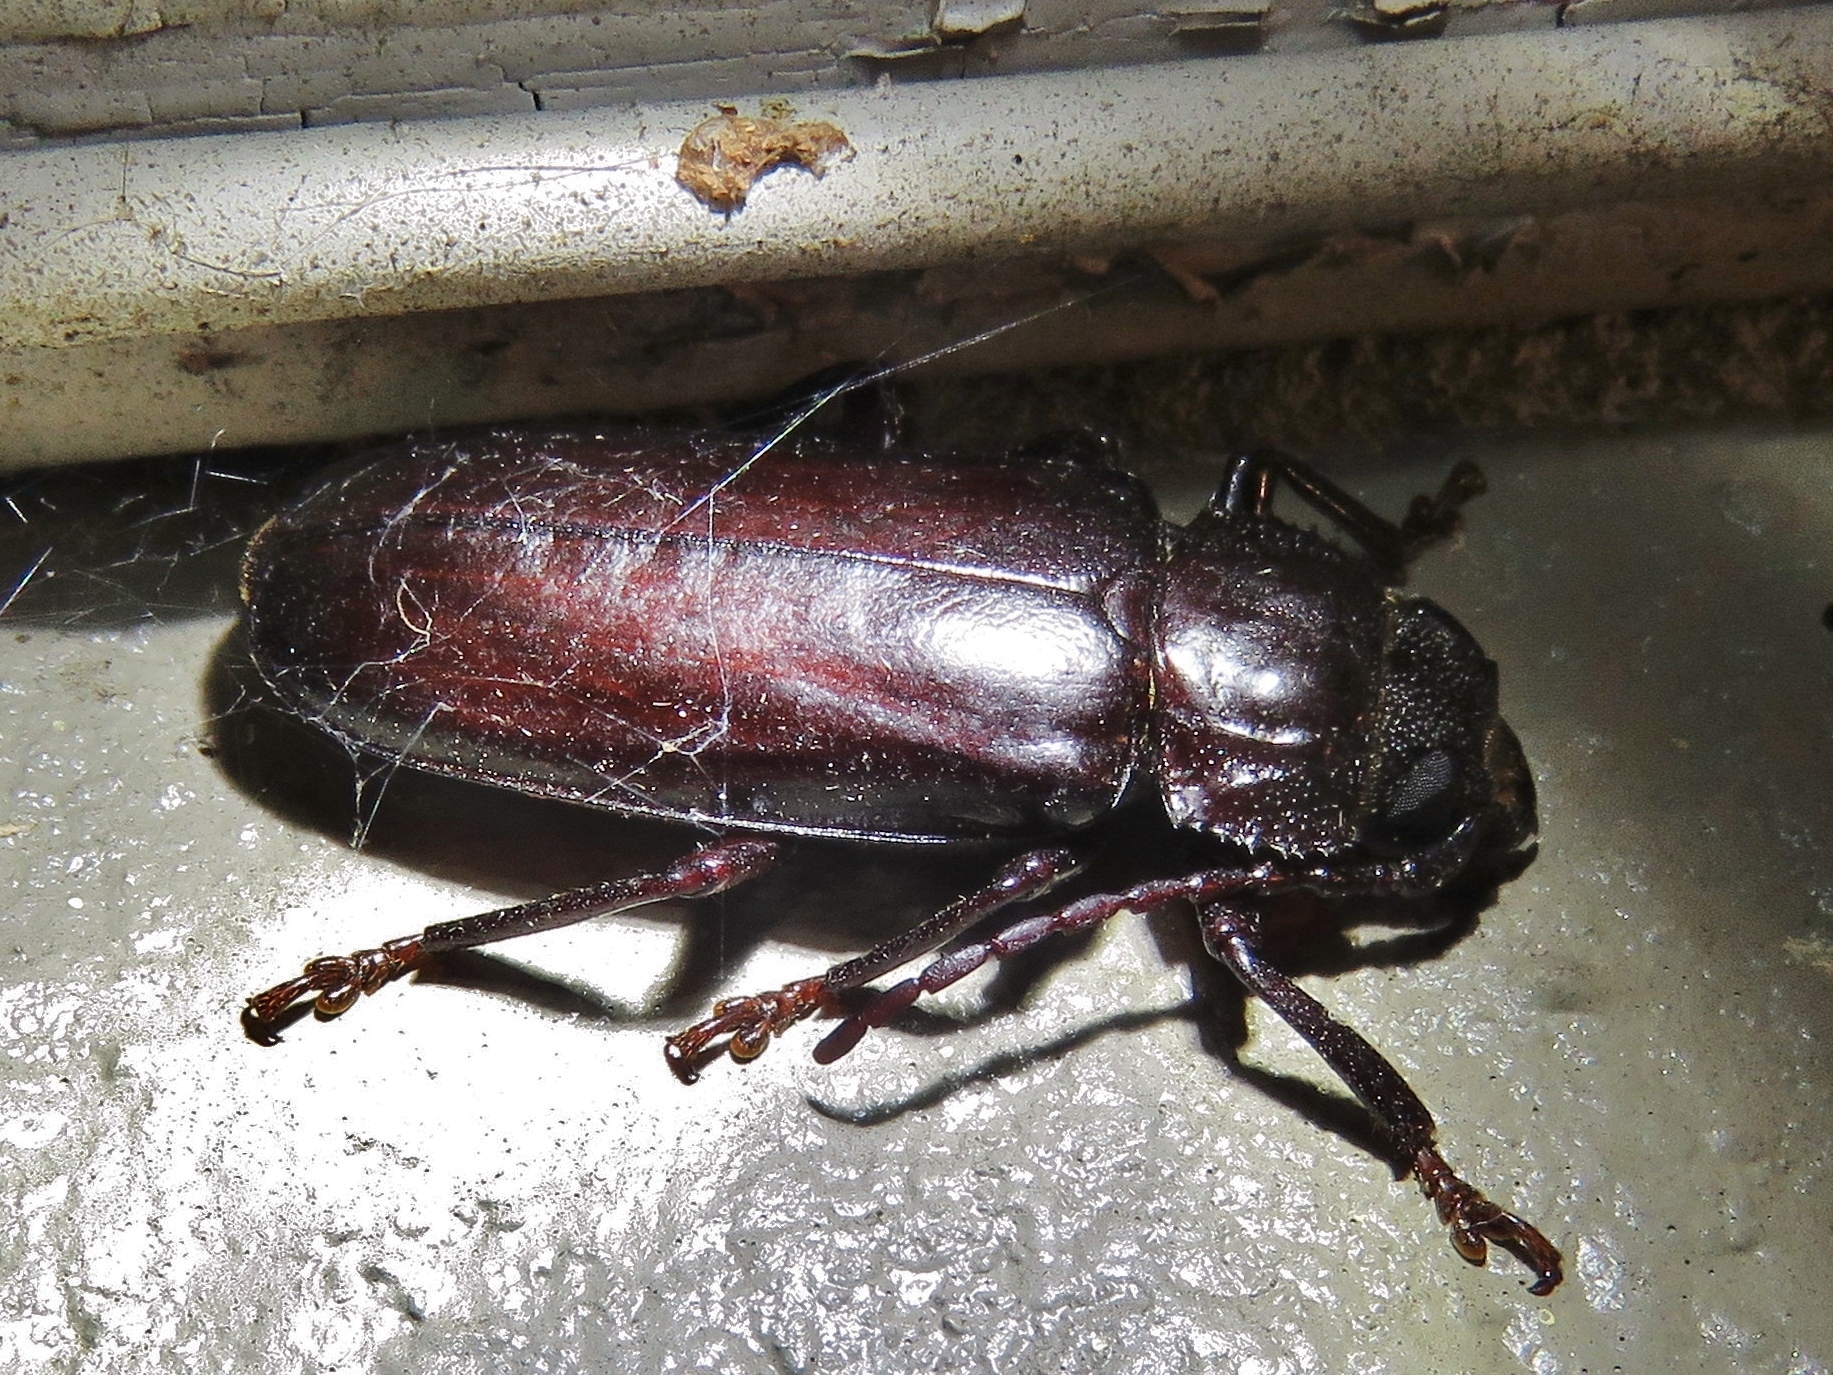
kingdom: Animalia
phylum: Arthropoda
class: Insecta
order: Coleoptera
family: Cerambycidae
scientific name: Cerambycidae
